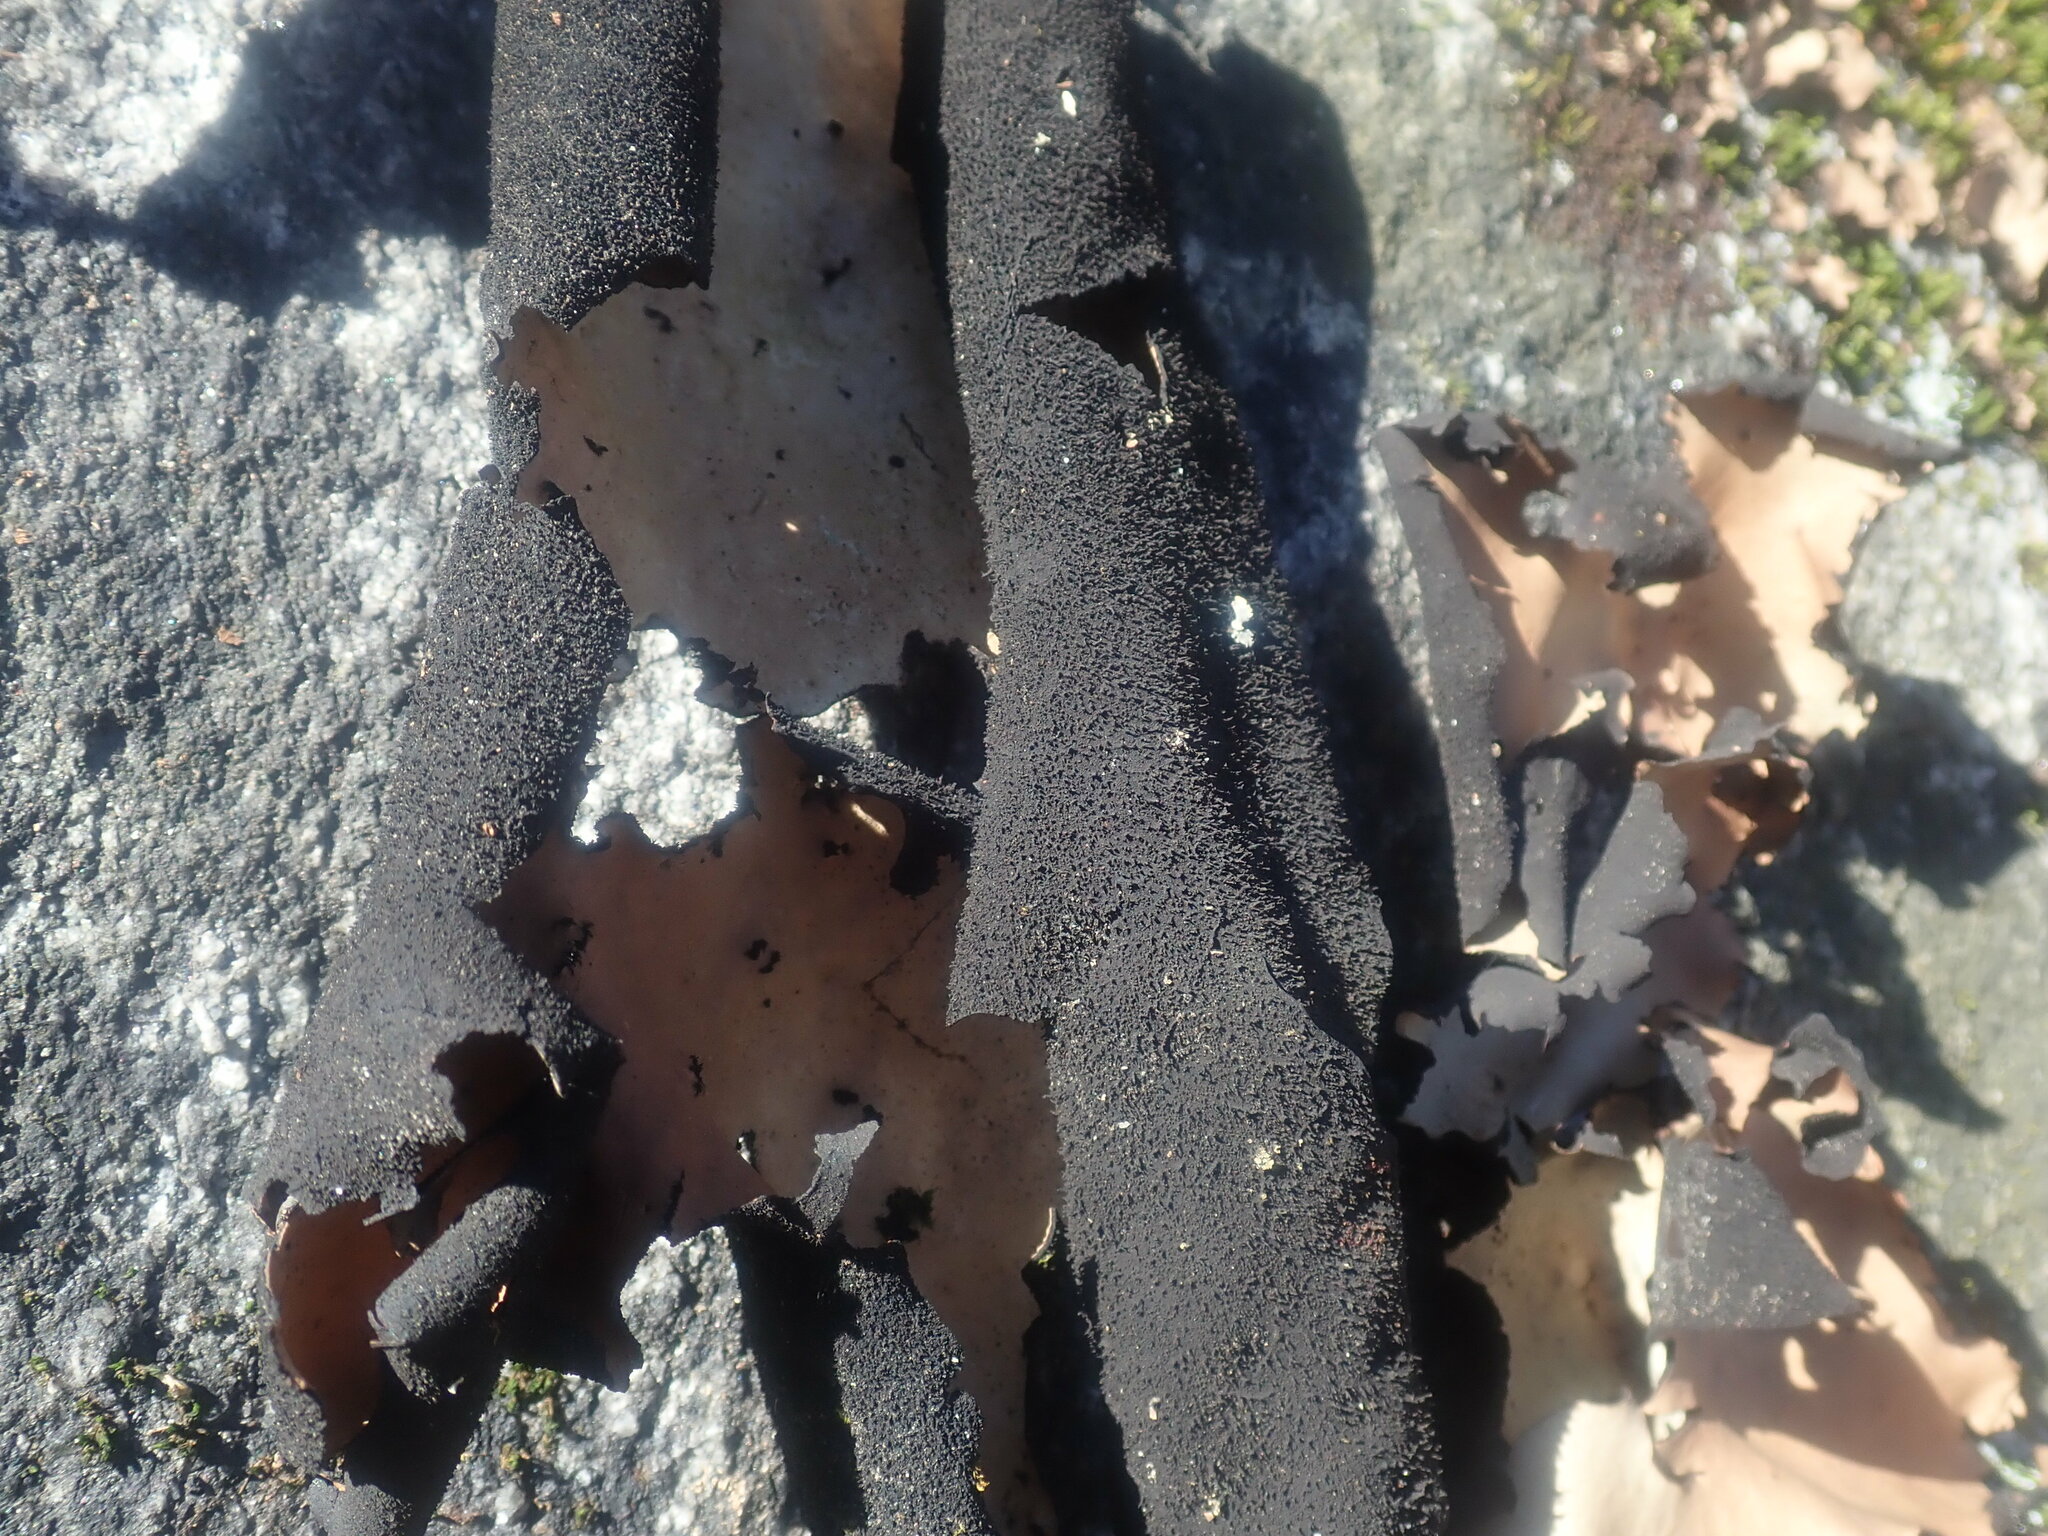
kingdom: Fungi
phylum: Ascomycota
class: Lecanoromycetes
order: Umbilicariales
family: Umbilicariaceae
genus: Umbilicaria
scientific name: Umbilicaria mammulata
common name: Smooth rock tripe
